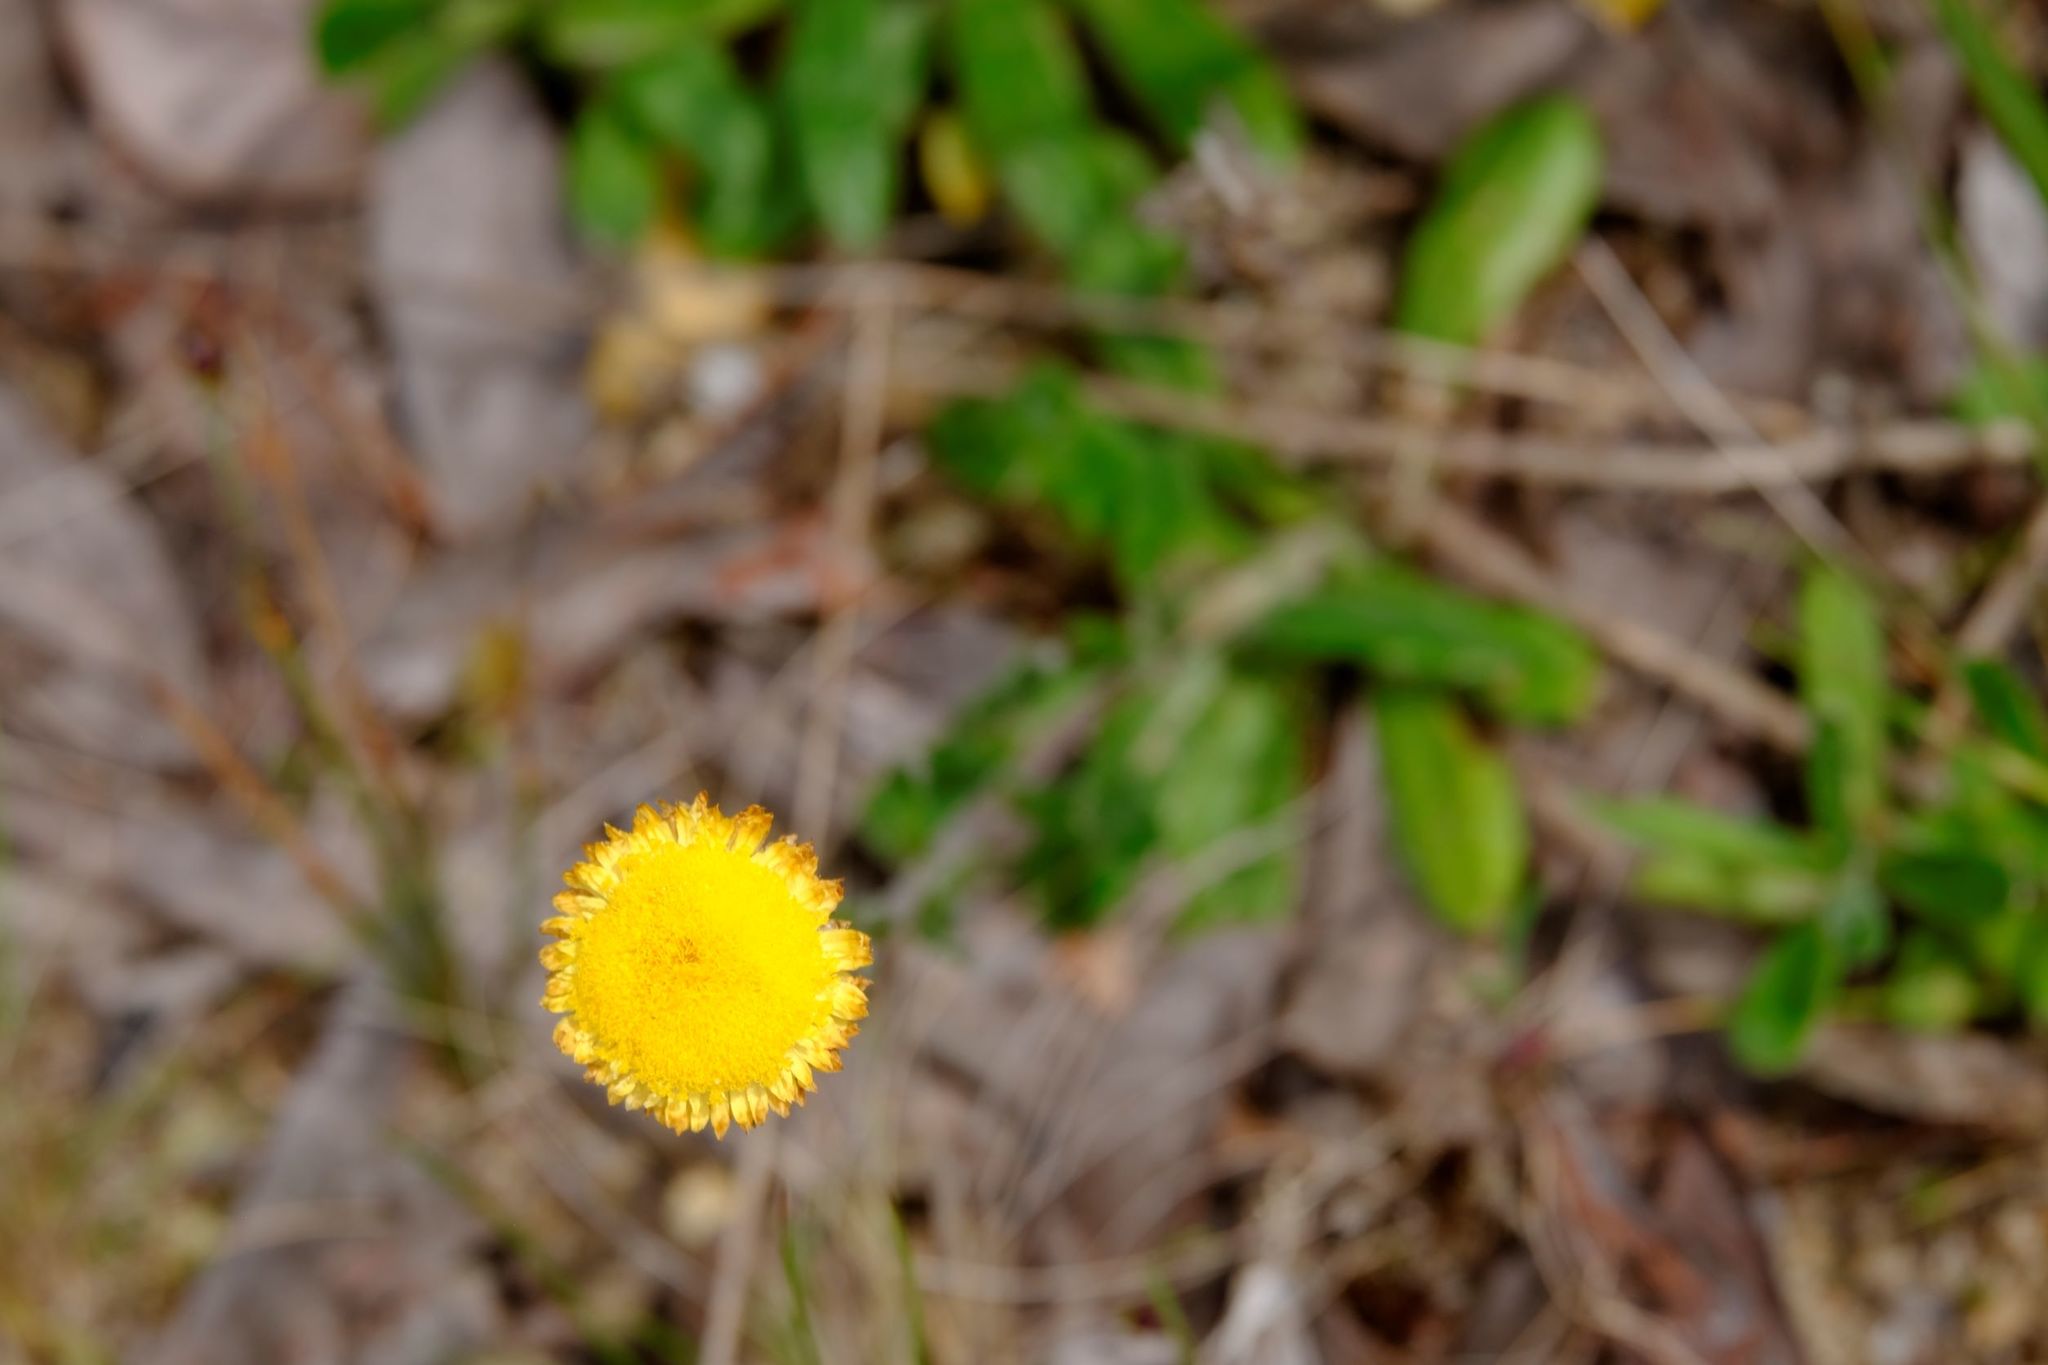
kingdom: Plantae
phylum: Tracheophyta
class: Magnoliopsida
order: Asterales
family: Asteraceae
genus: Coronidium
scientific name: Coronidium scorpioides
